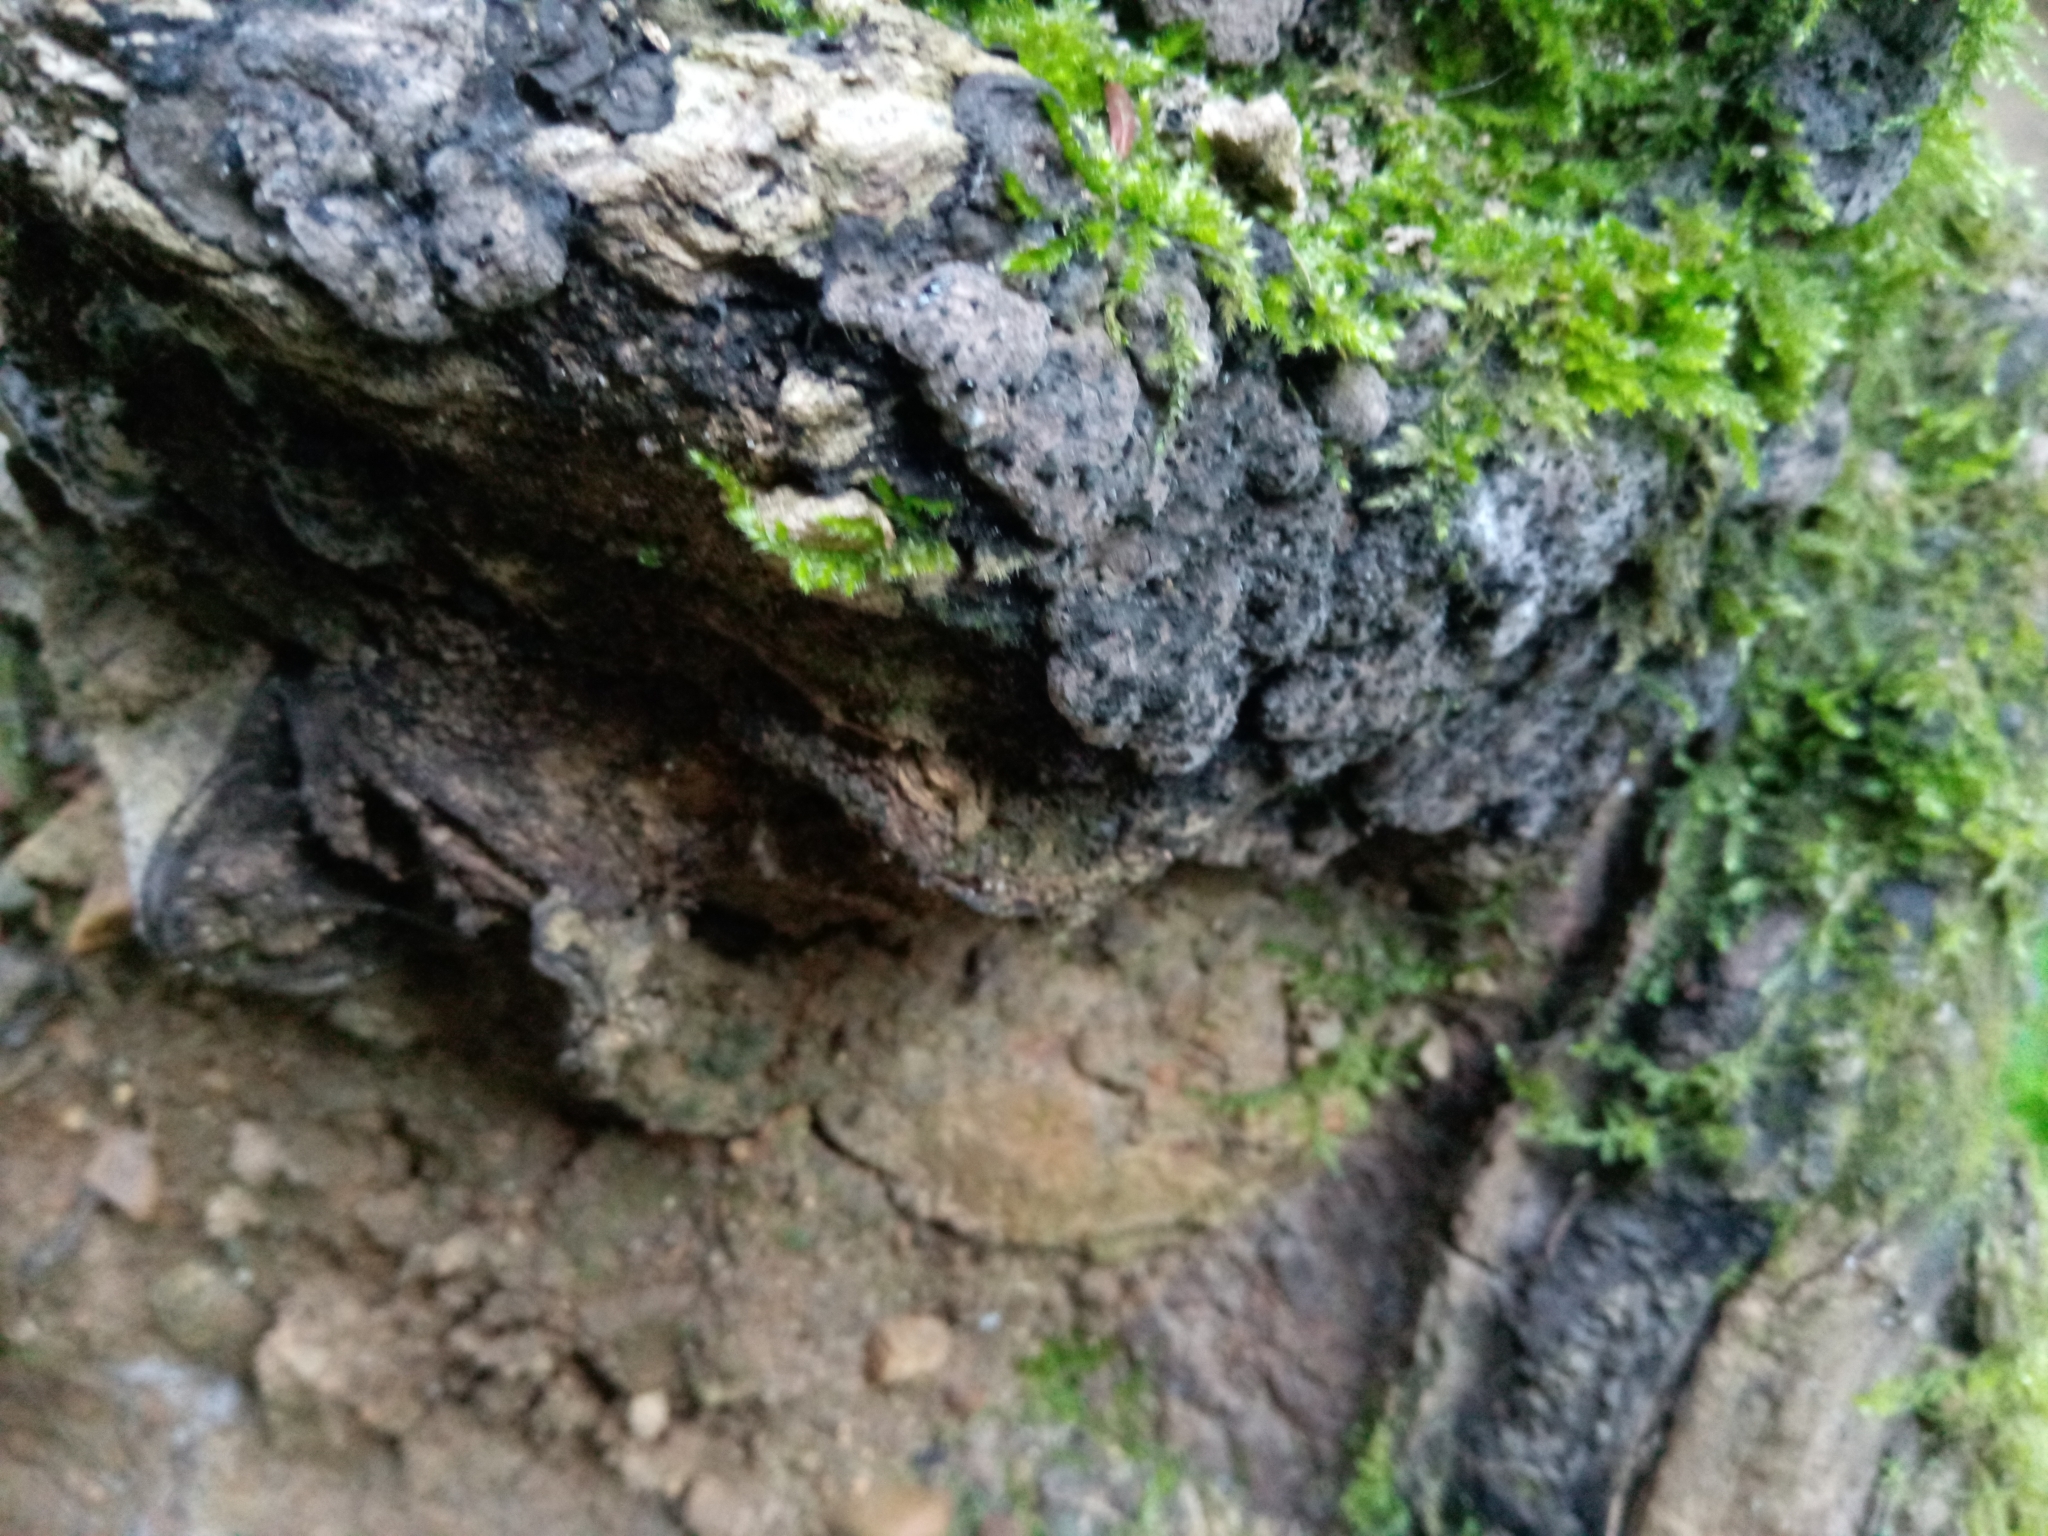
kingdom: Fungi
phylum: Ascomycota
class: Sordariomycetes
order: Xylariales
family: Xylariaceae
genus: Kretzschmaria
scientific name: Kretzschmaria deusta
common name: Brittle cinder
